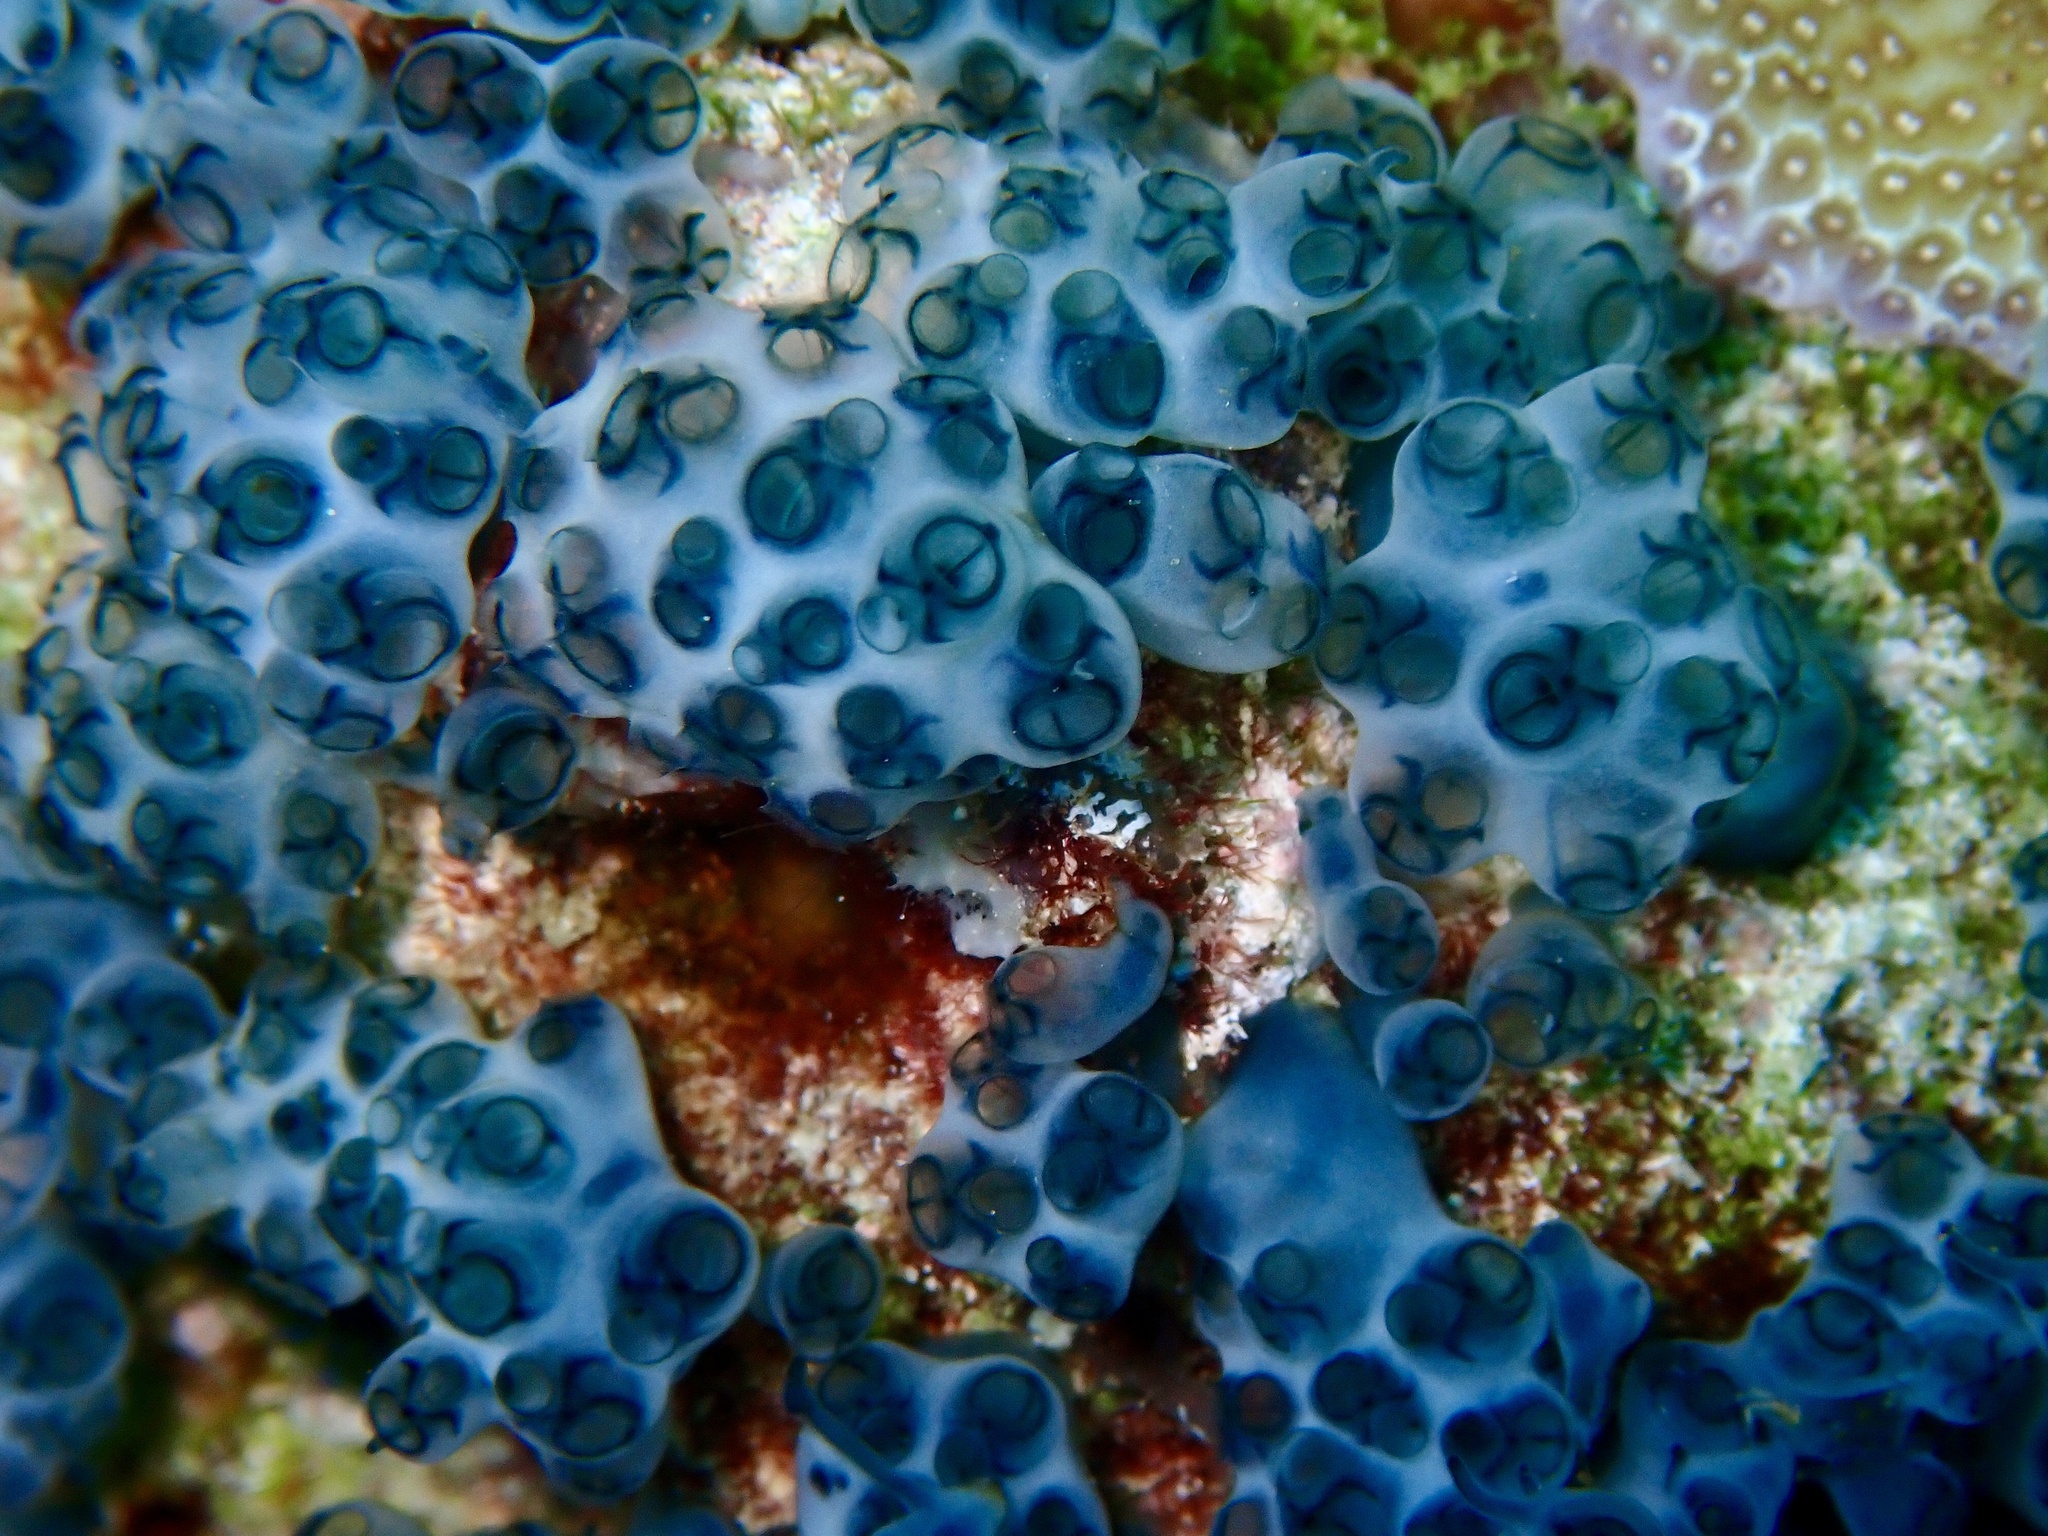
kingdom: Animalia
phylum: Chordata
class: Ascidiacea
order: Aplousobranchia
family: Holozoidae
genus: Sigillina
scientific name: Sigillina signifera
